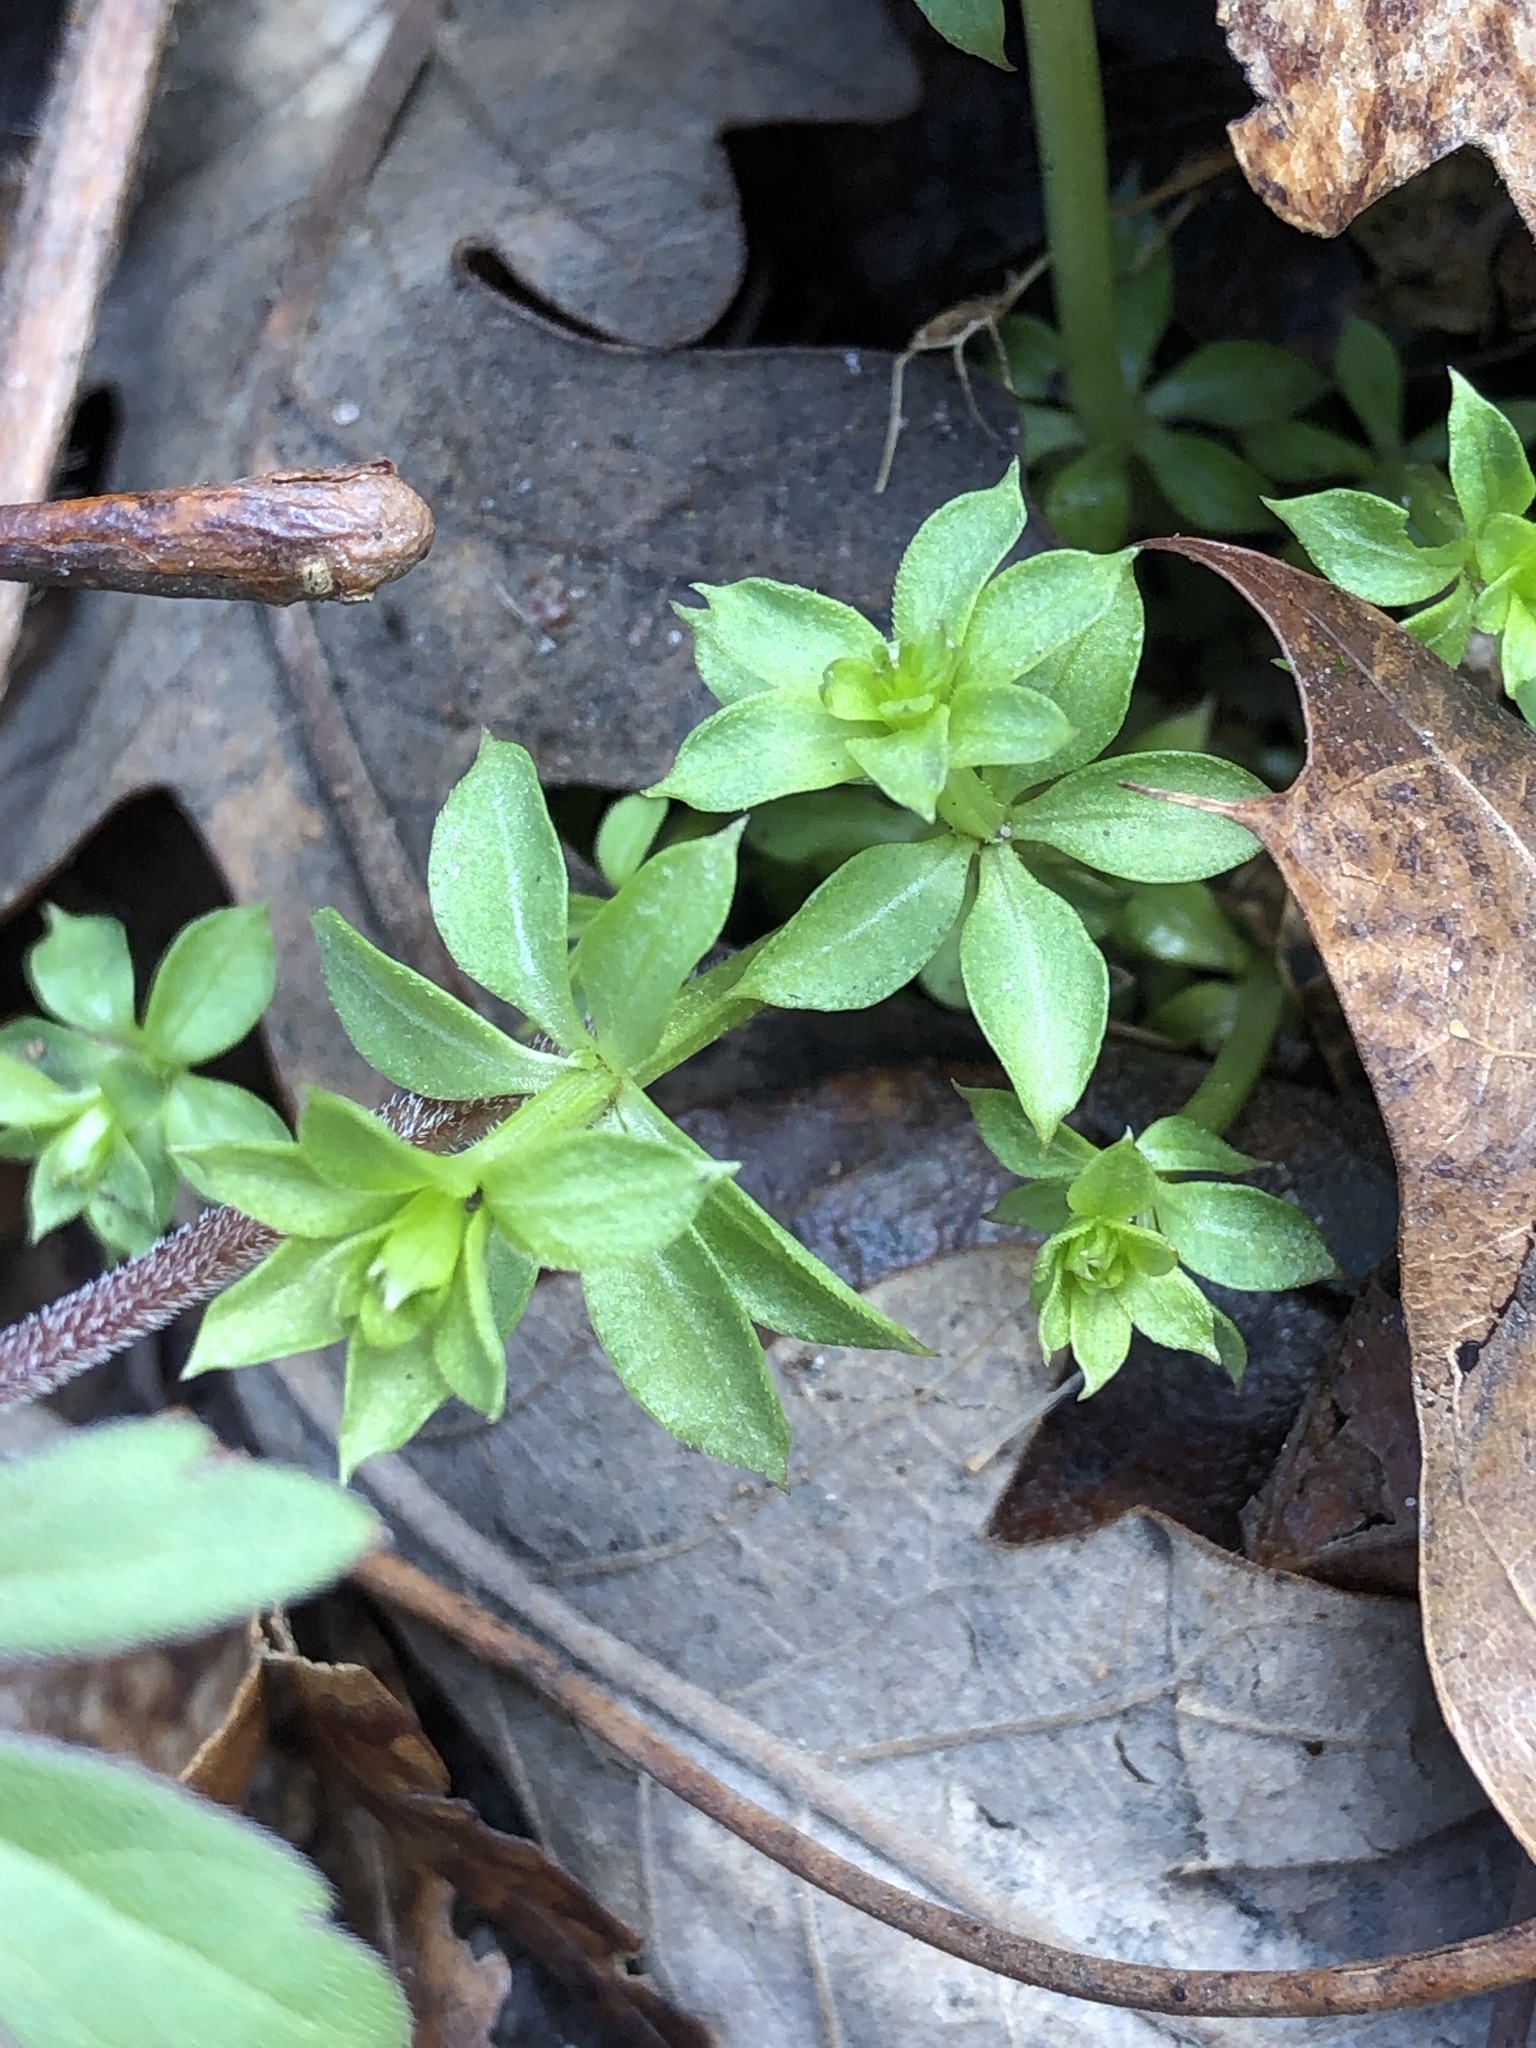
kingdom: Plantae
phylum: Tracheophyta
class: Magnoliopsida
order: Gentianales
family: Rubiaceae
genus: Galium
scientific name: Galium triflorum
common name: Fragrant bedstraw
